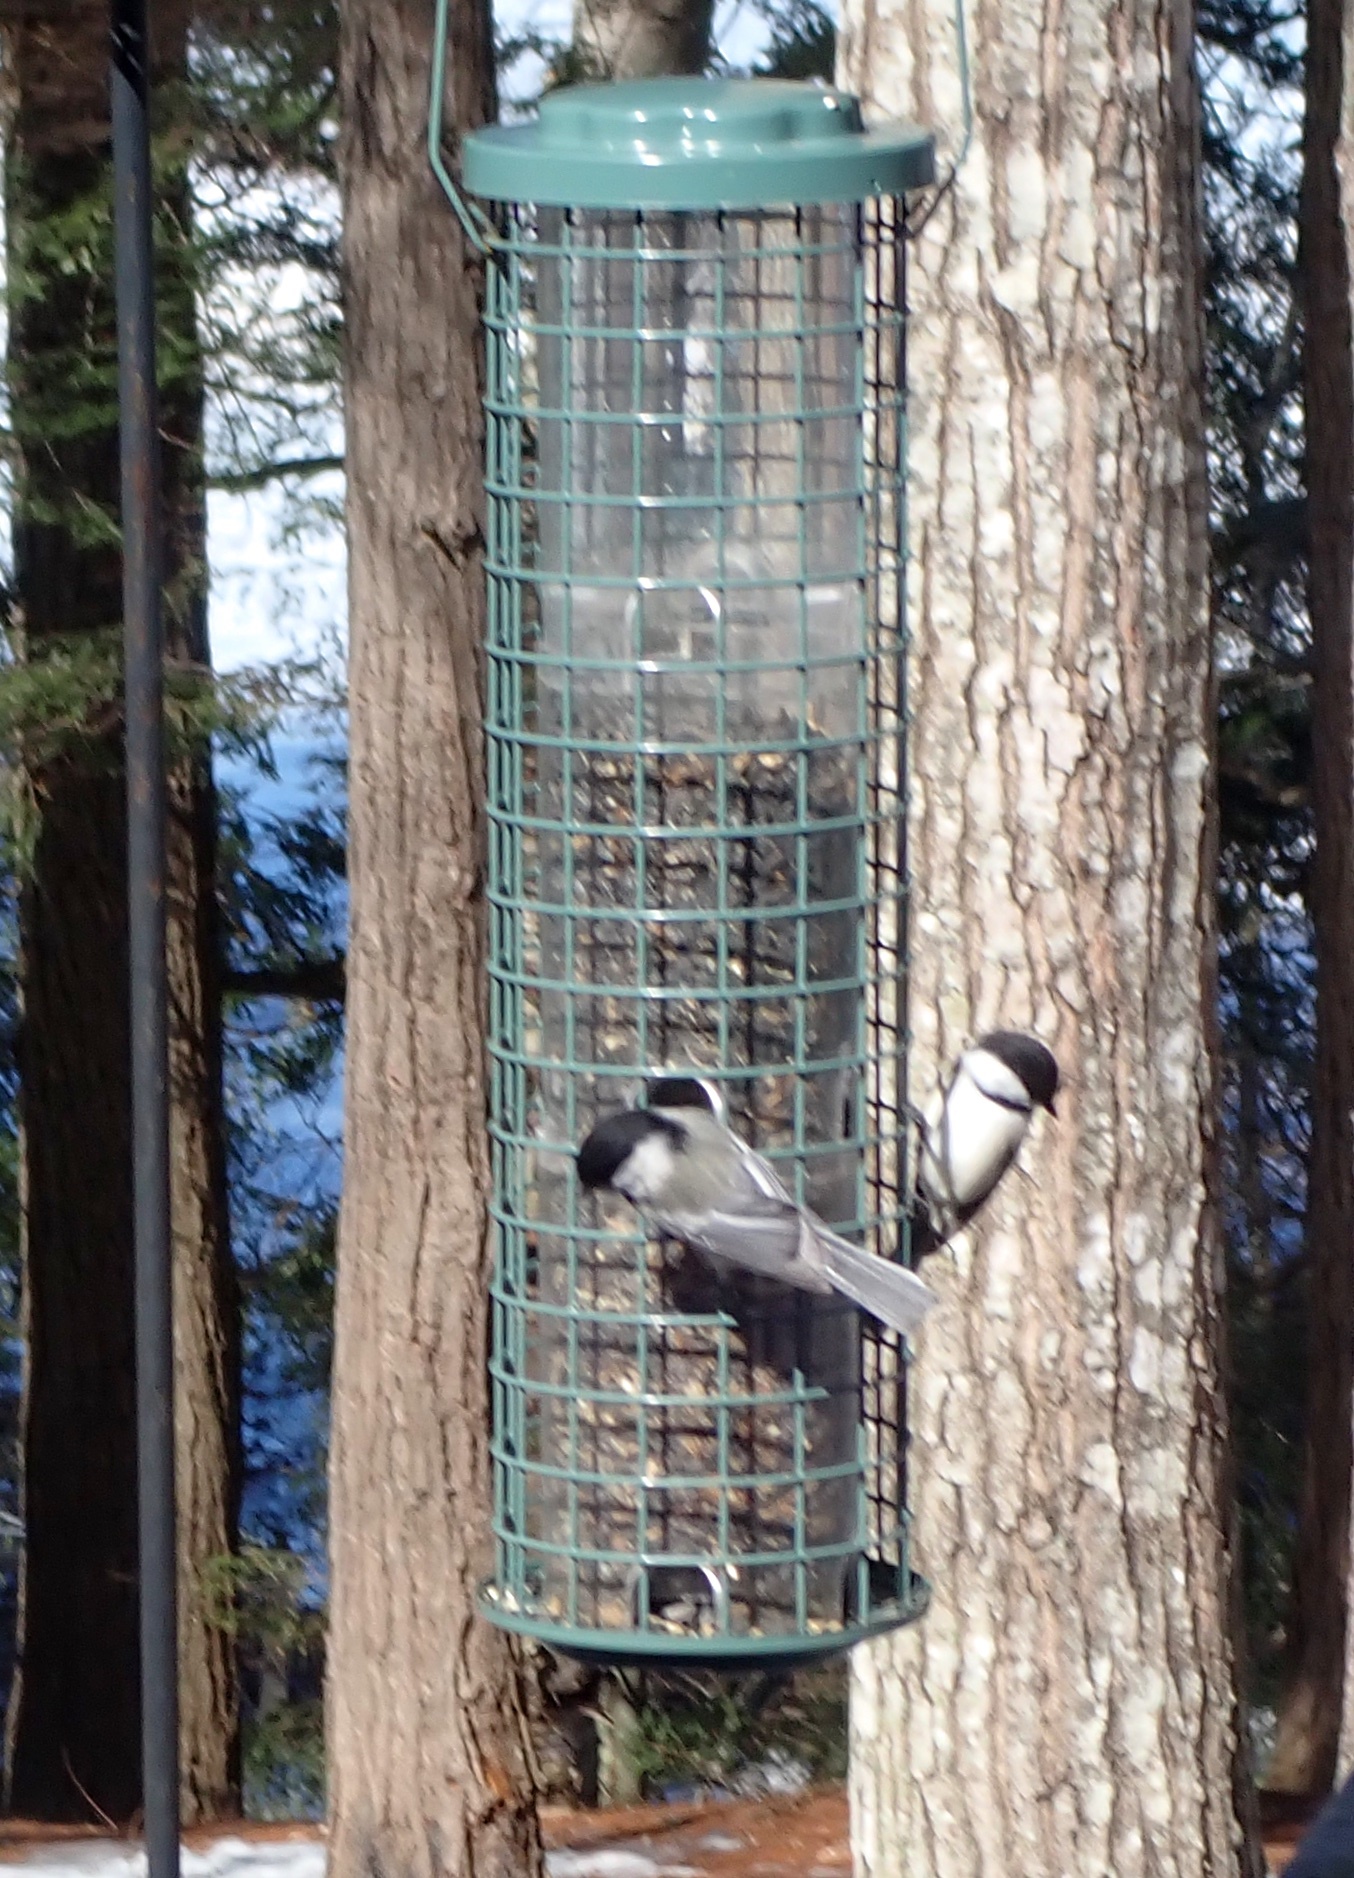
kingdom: Animalia
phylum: Chordata
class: Aves
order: Passeriformes
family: Paridae
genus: Poecile
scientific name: Poecile atricapillus
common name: Black-capped chickadee
